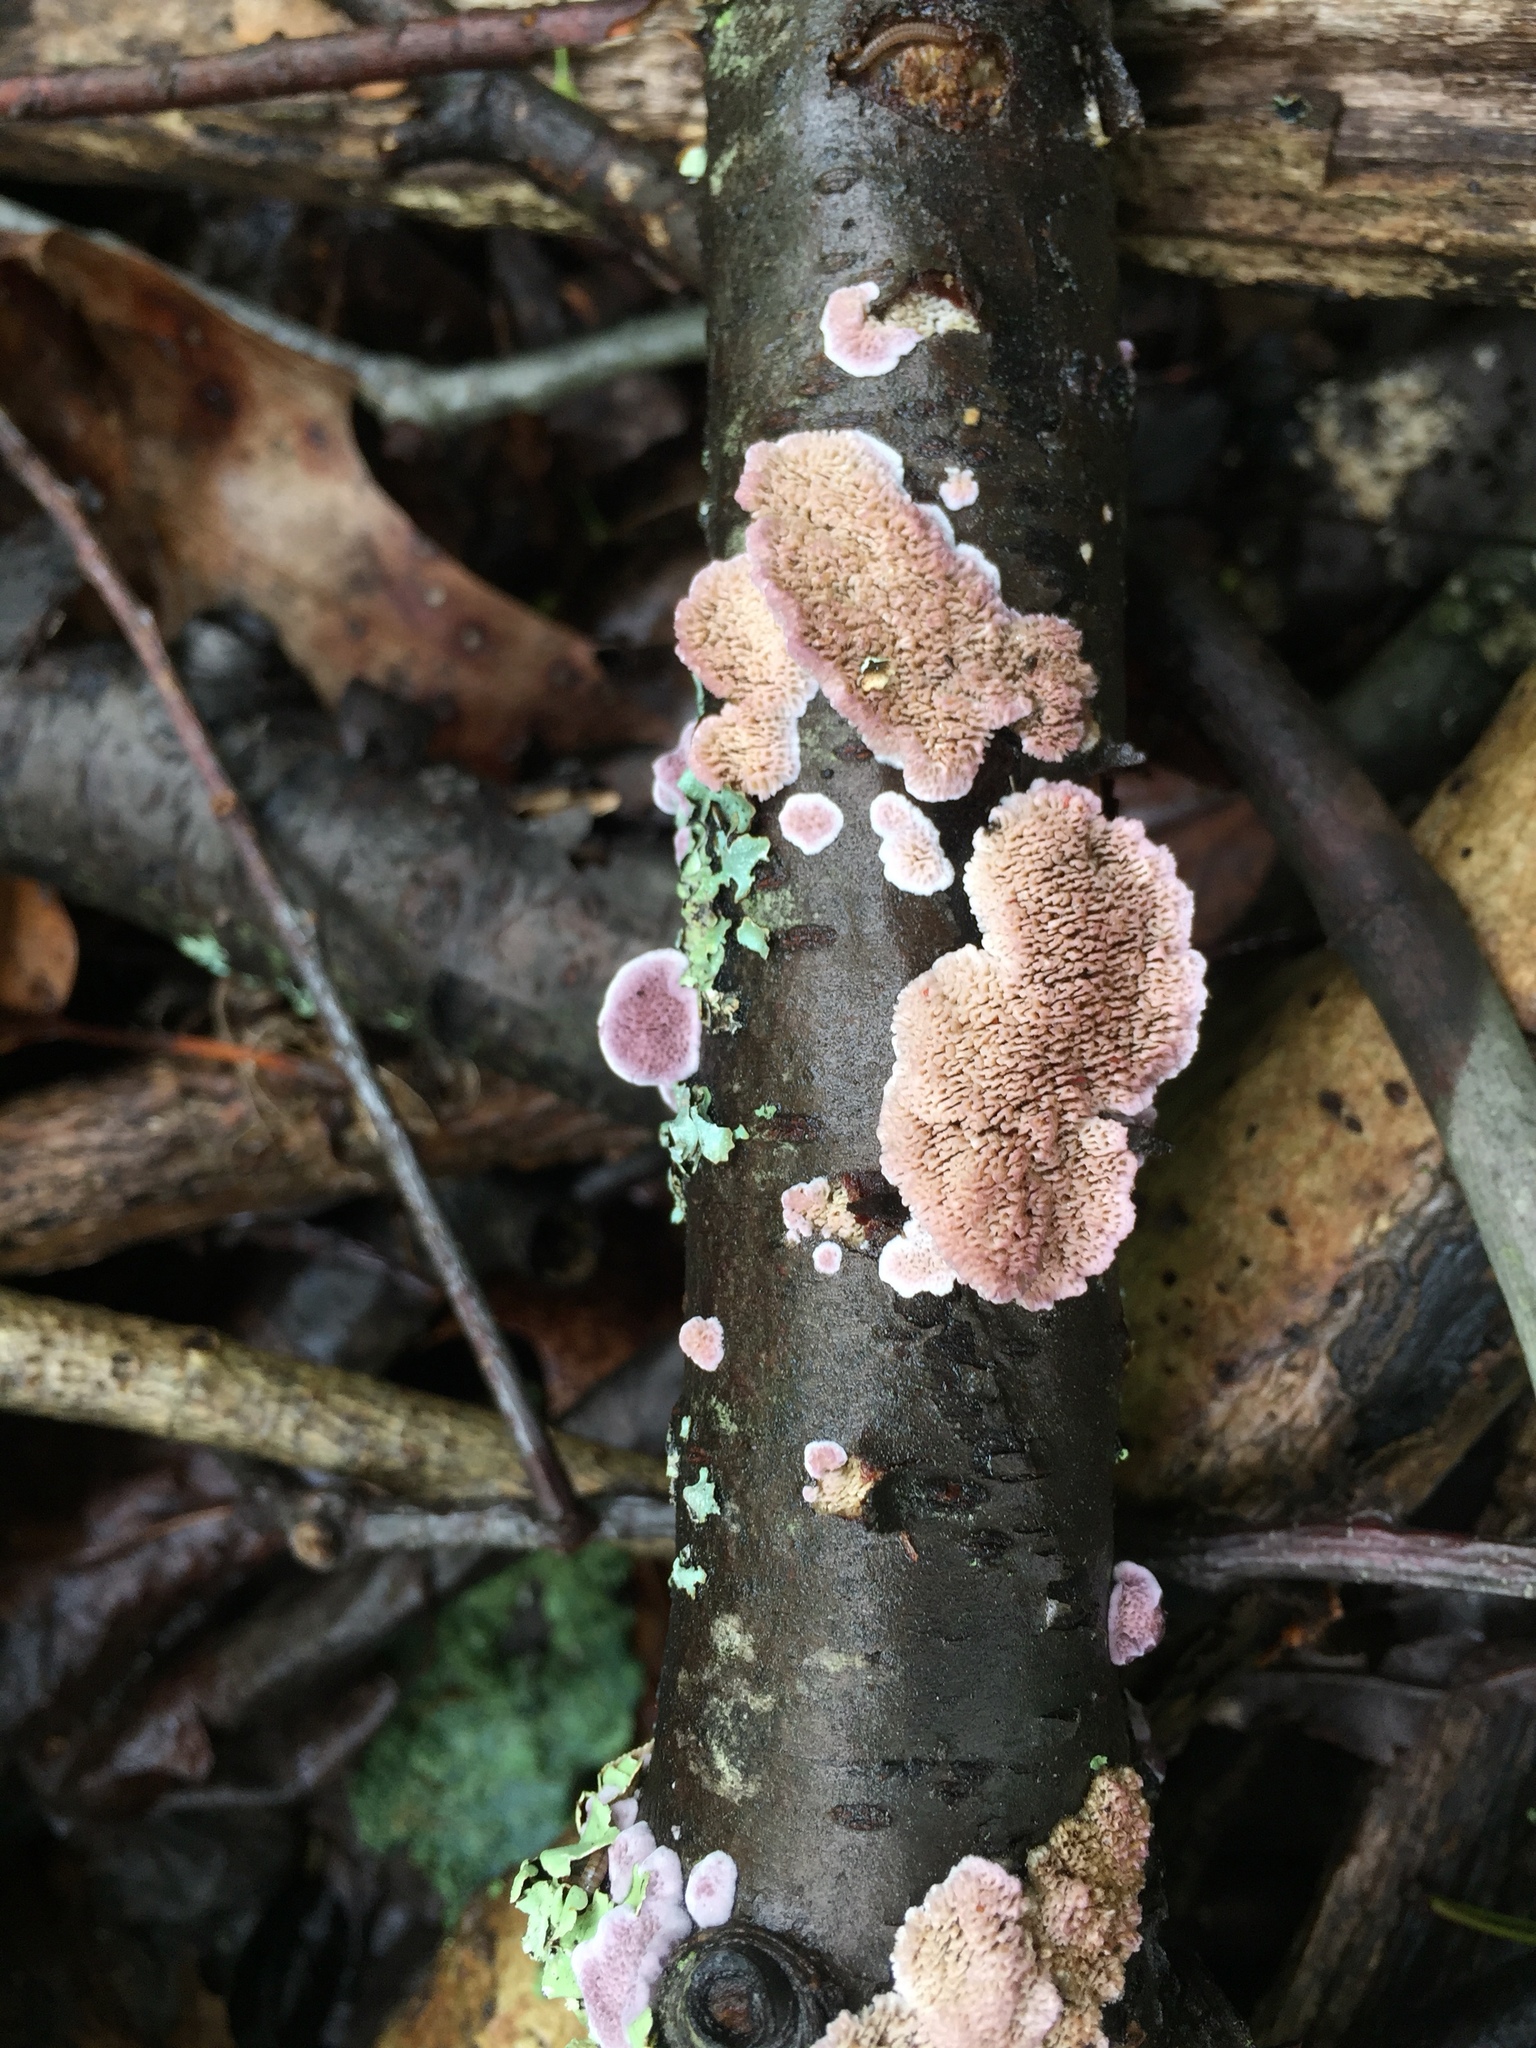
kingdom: Fungi
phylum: Basidiomycota
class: Agaricomycetes
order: Hymenochaetales
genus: Trichaptum
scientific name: Trichaptum biforme
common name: Violet-toothed polypore
